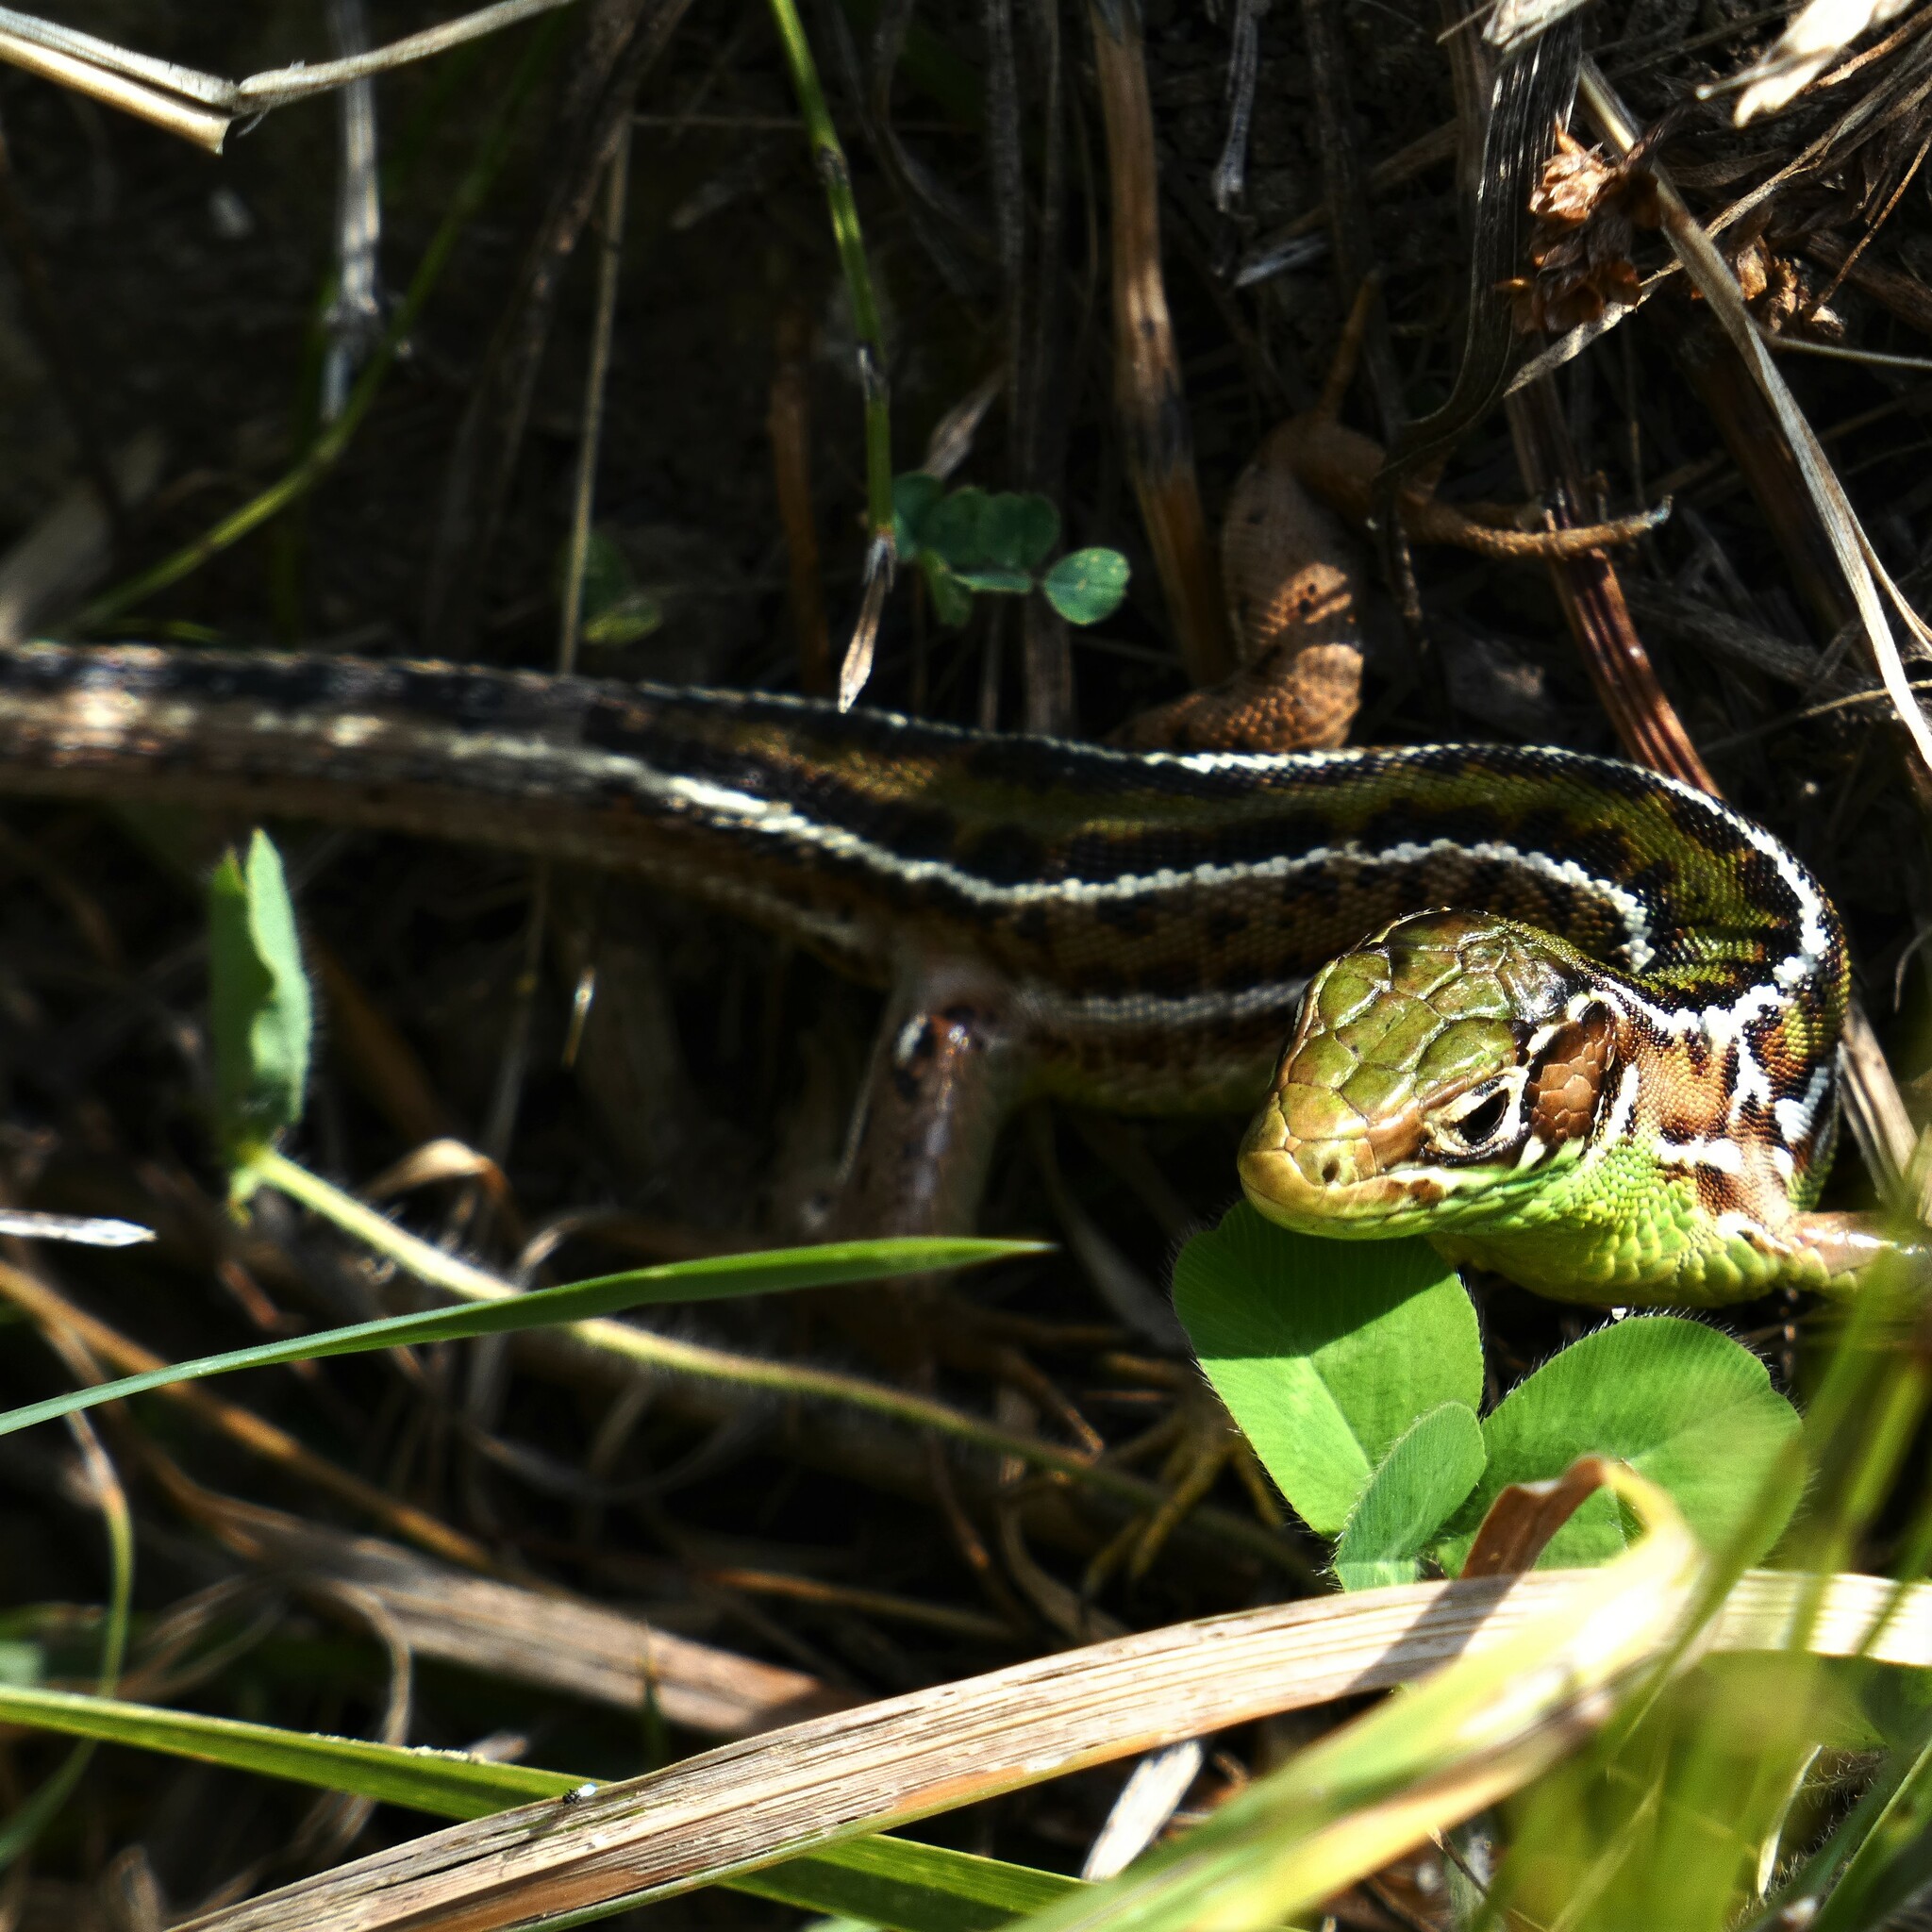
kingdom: Animalia
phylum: Chordata
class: Squamata
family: Lacertidae
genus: Lacerta
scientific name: Lacerta bilineata
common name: Western green lizard
